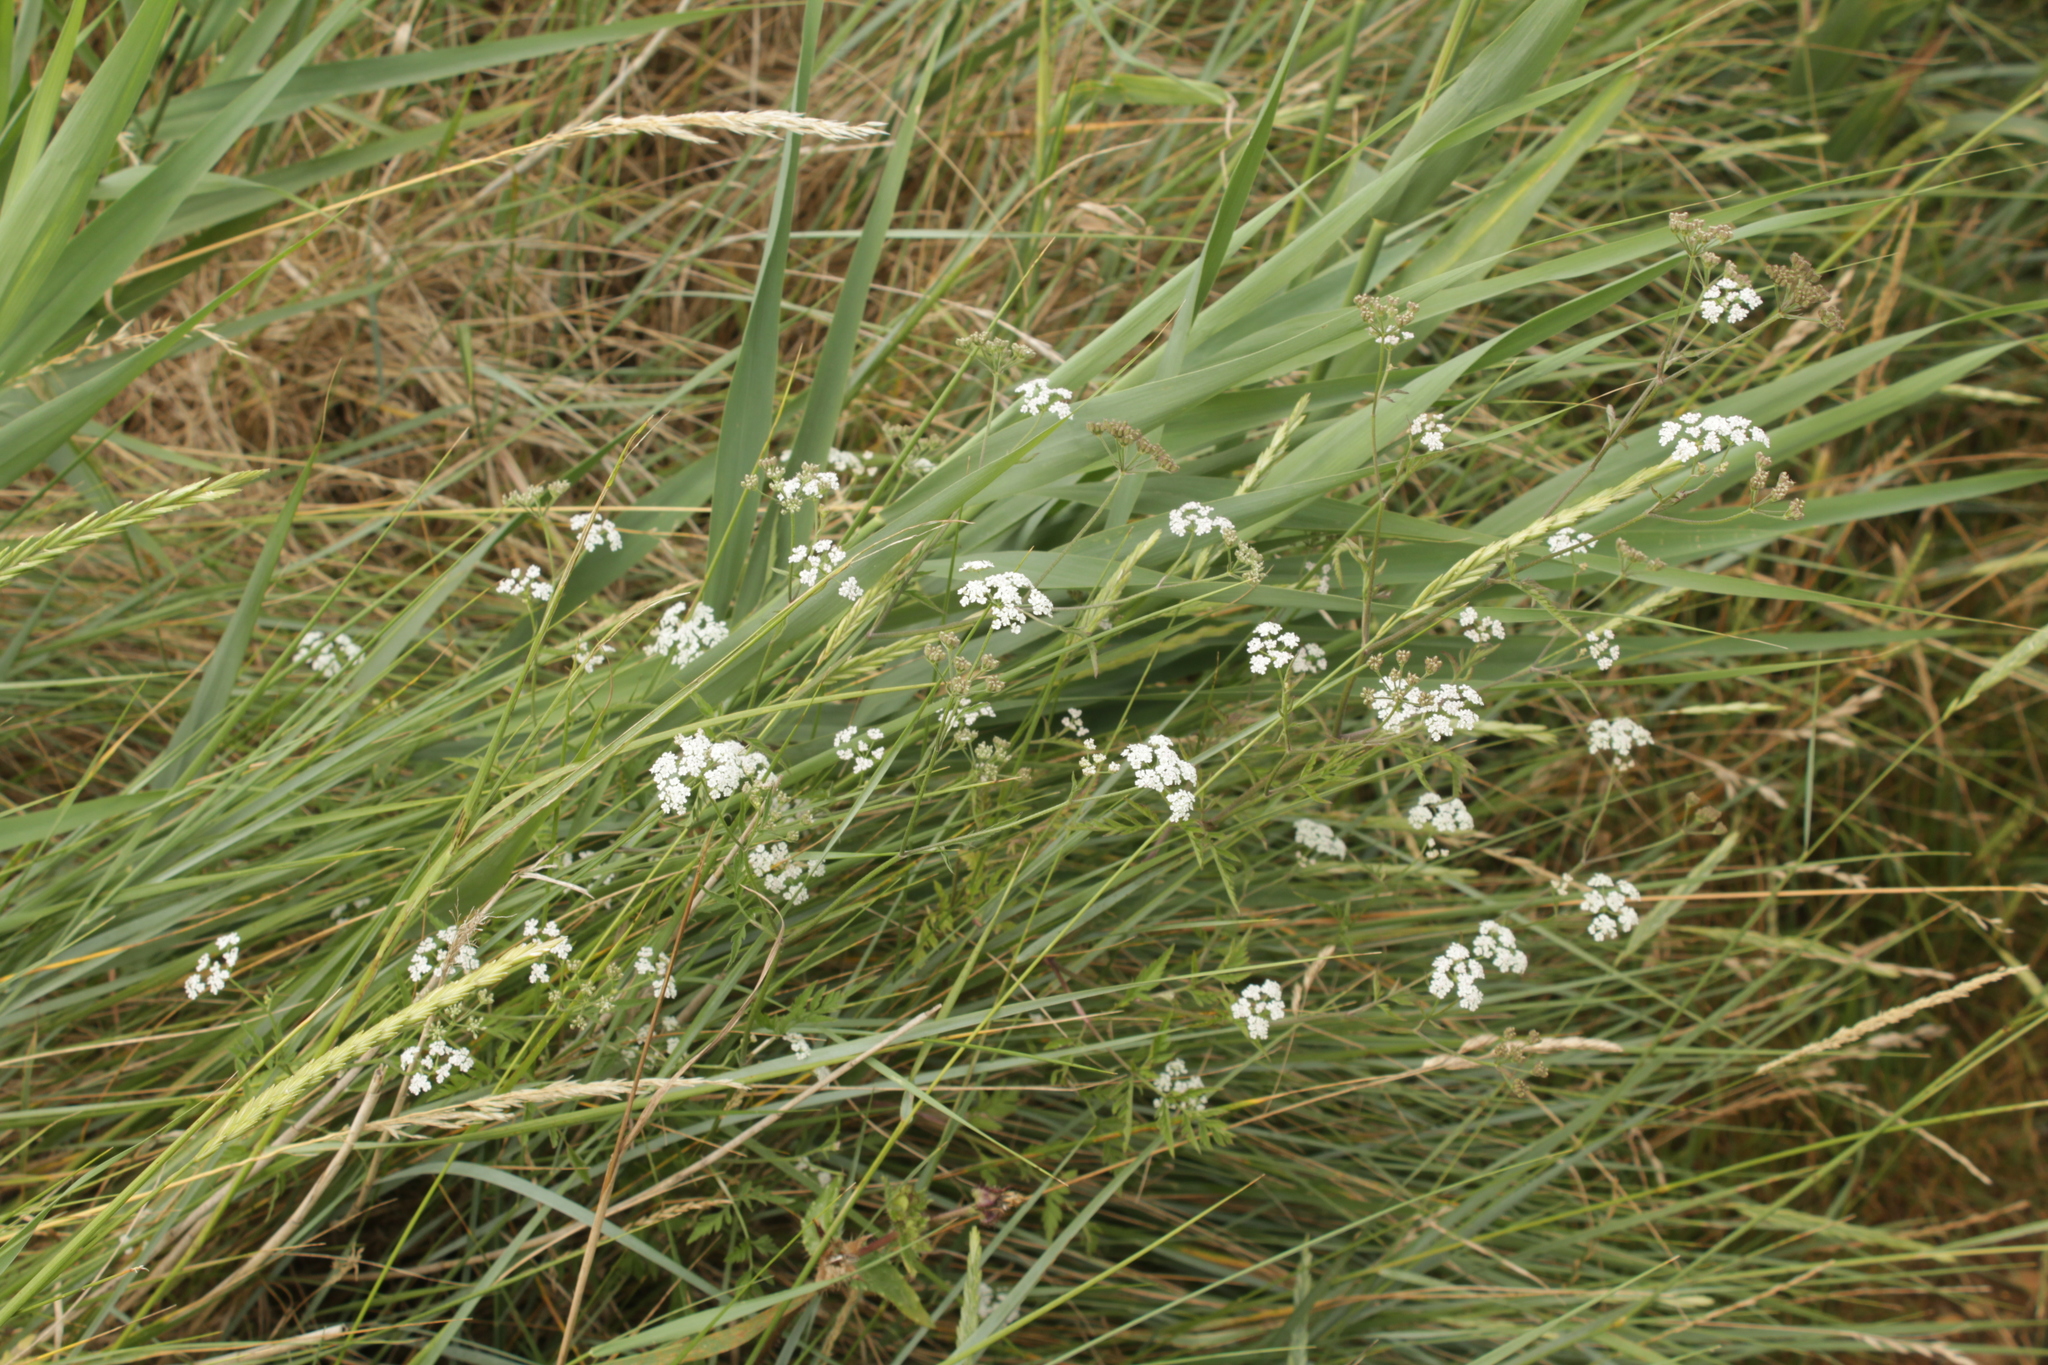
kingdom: Plantae
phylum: Tracheophyta
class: Magnoliopsida
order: Apiales
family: Apiaceae
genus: Torilis
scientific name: Torilis japonica
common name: Upright hedge-parsley
